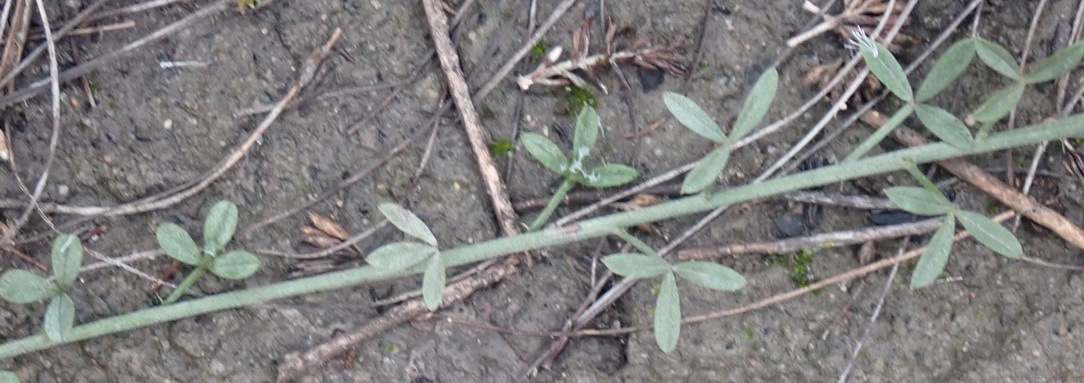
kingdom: Plantae
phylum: Tracheophyta
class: Magnoliopsida
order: Fabales
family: Fabaceae
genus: Indigofera
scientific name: Indigofera heterophylla
